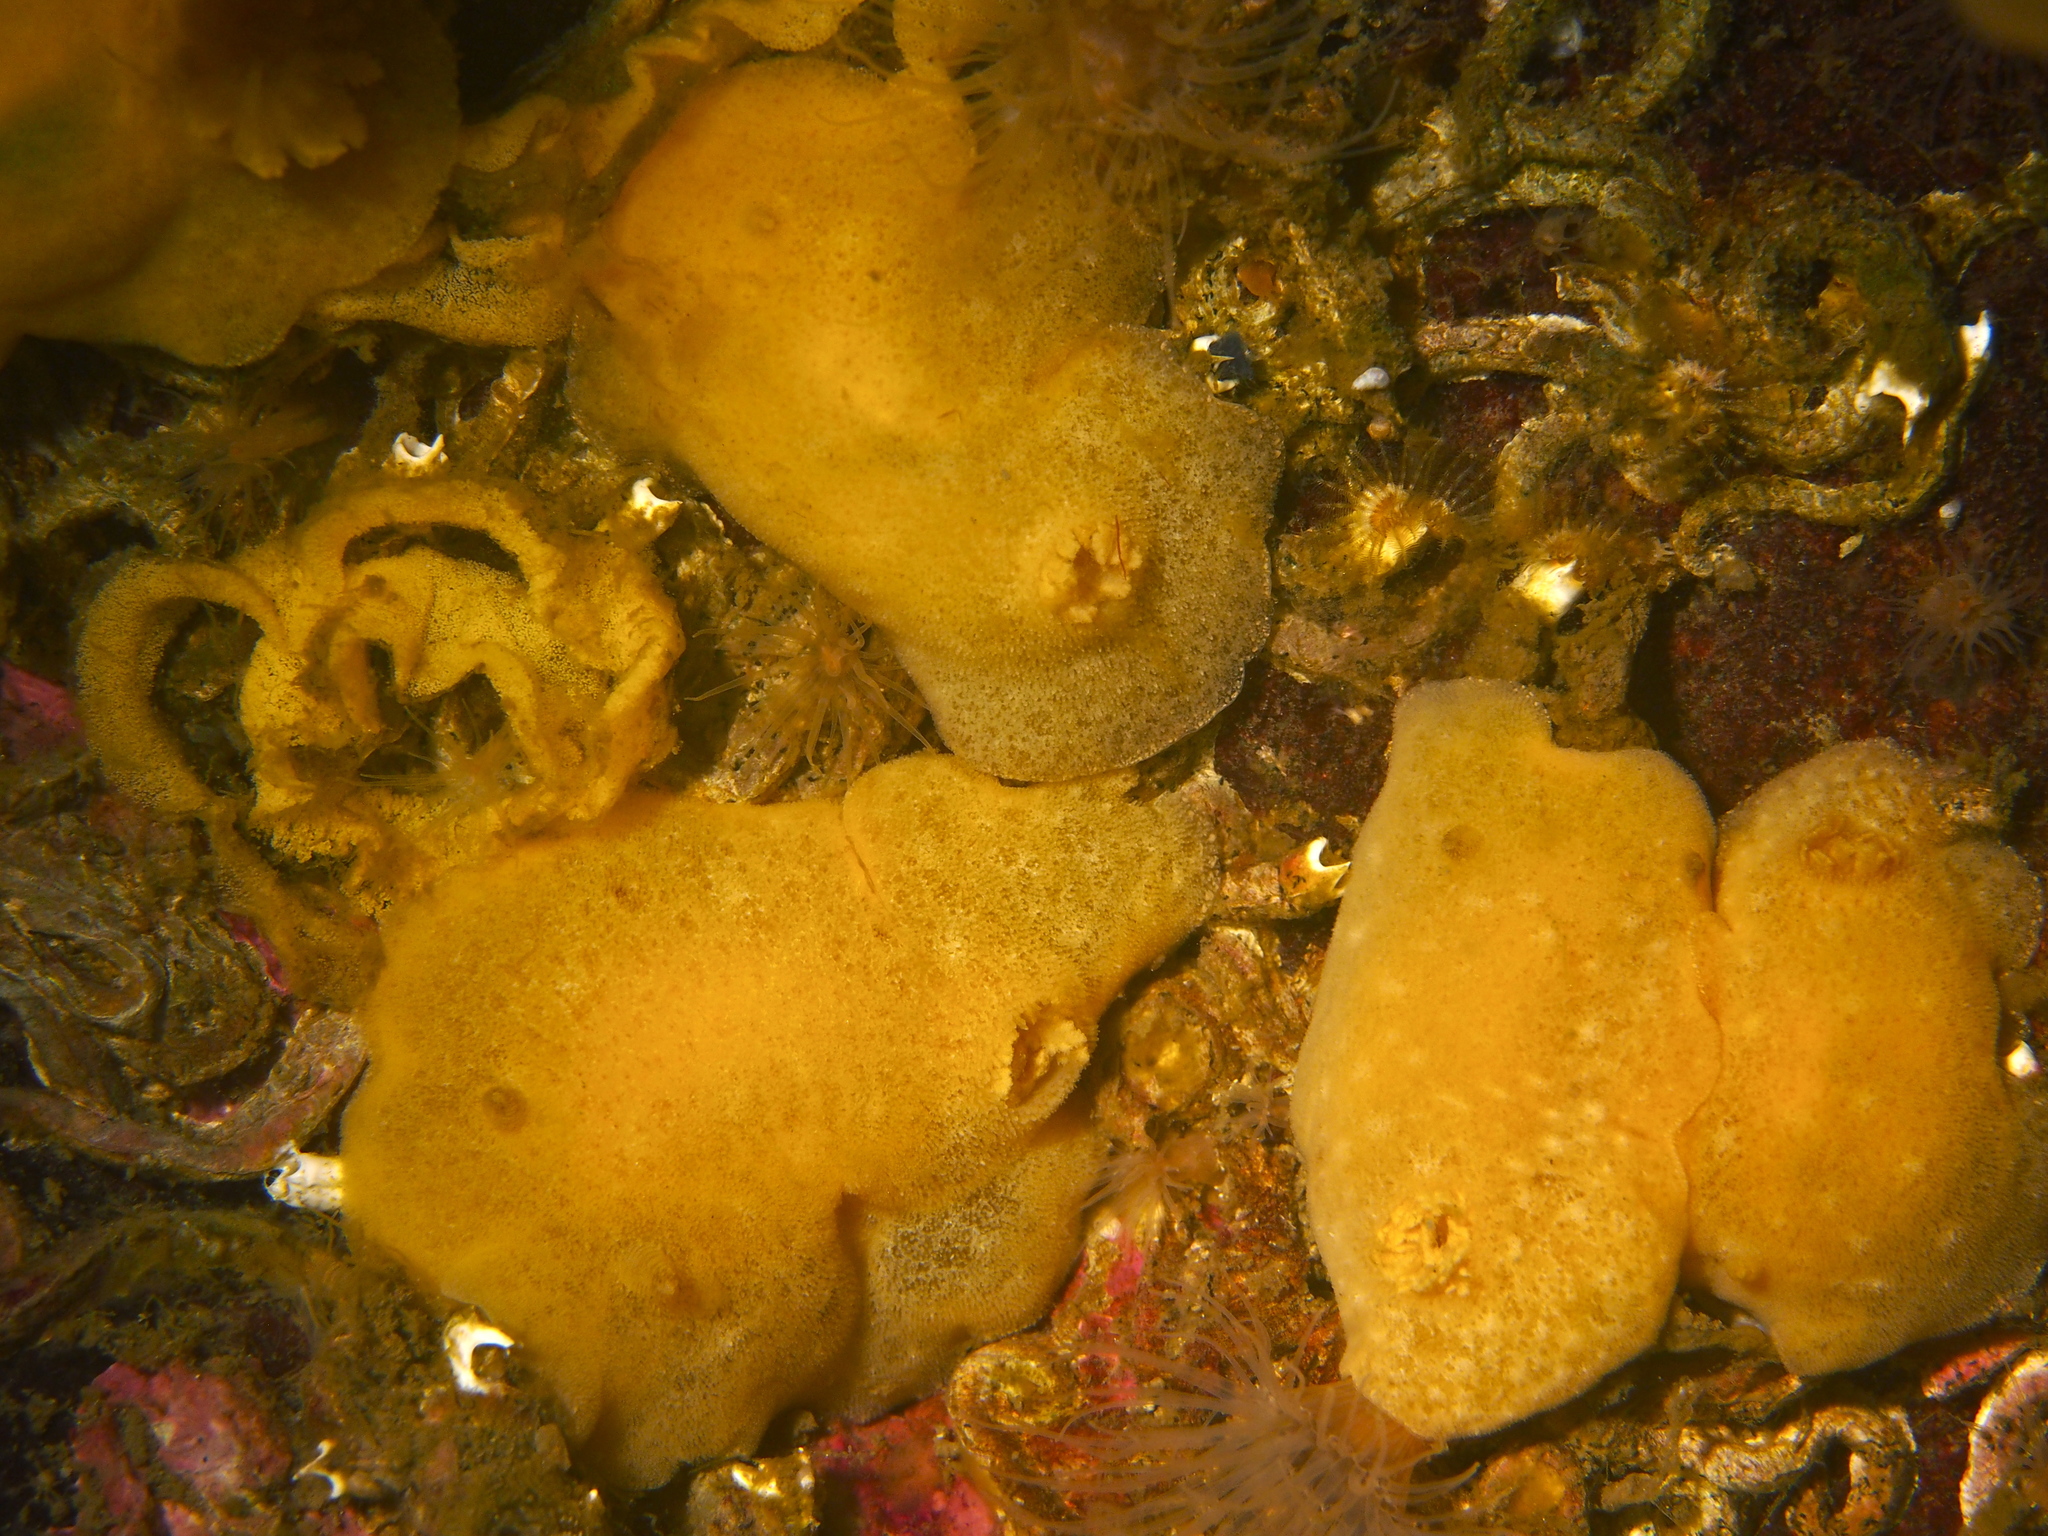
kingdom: Animalia
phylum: Mollusca
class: Gastropoda
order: Nudibranchia
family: Discodorididae
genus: Jorunna
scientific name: Jorunna tomentosa
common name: Grey sea slug
